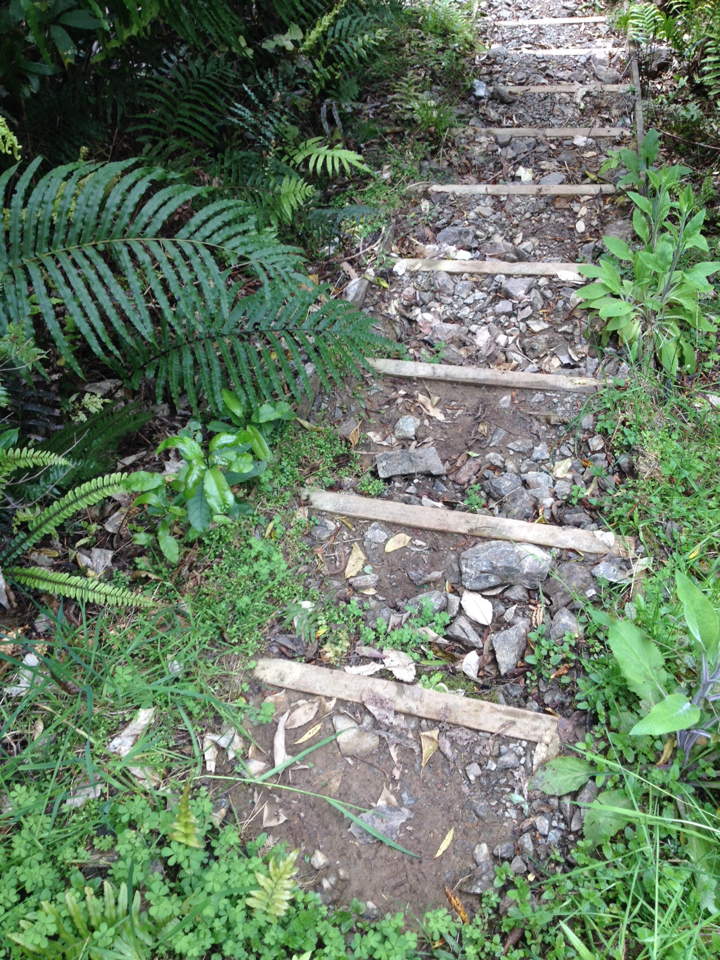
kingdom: Plantae
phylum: Tracheophyta
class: Lycopodiopsida
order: Selaginellales
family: Selaginellaceae
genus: Selaginella
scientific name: Selaginella kraussiana
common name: Krauss' spikemoss
